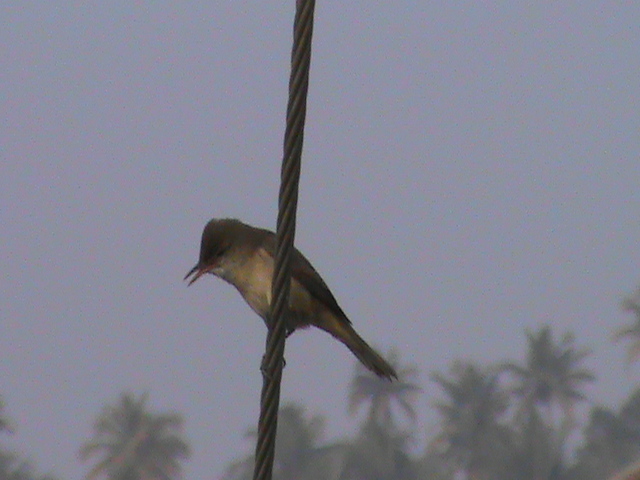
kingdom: Animalia
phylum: Chordata
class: Aves
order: Passeriformes
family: Acrocephalidae
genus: Acrocephalus
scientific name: Acrocephalus stentoreus
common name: Clamorous reed warbler
